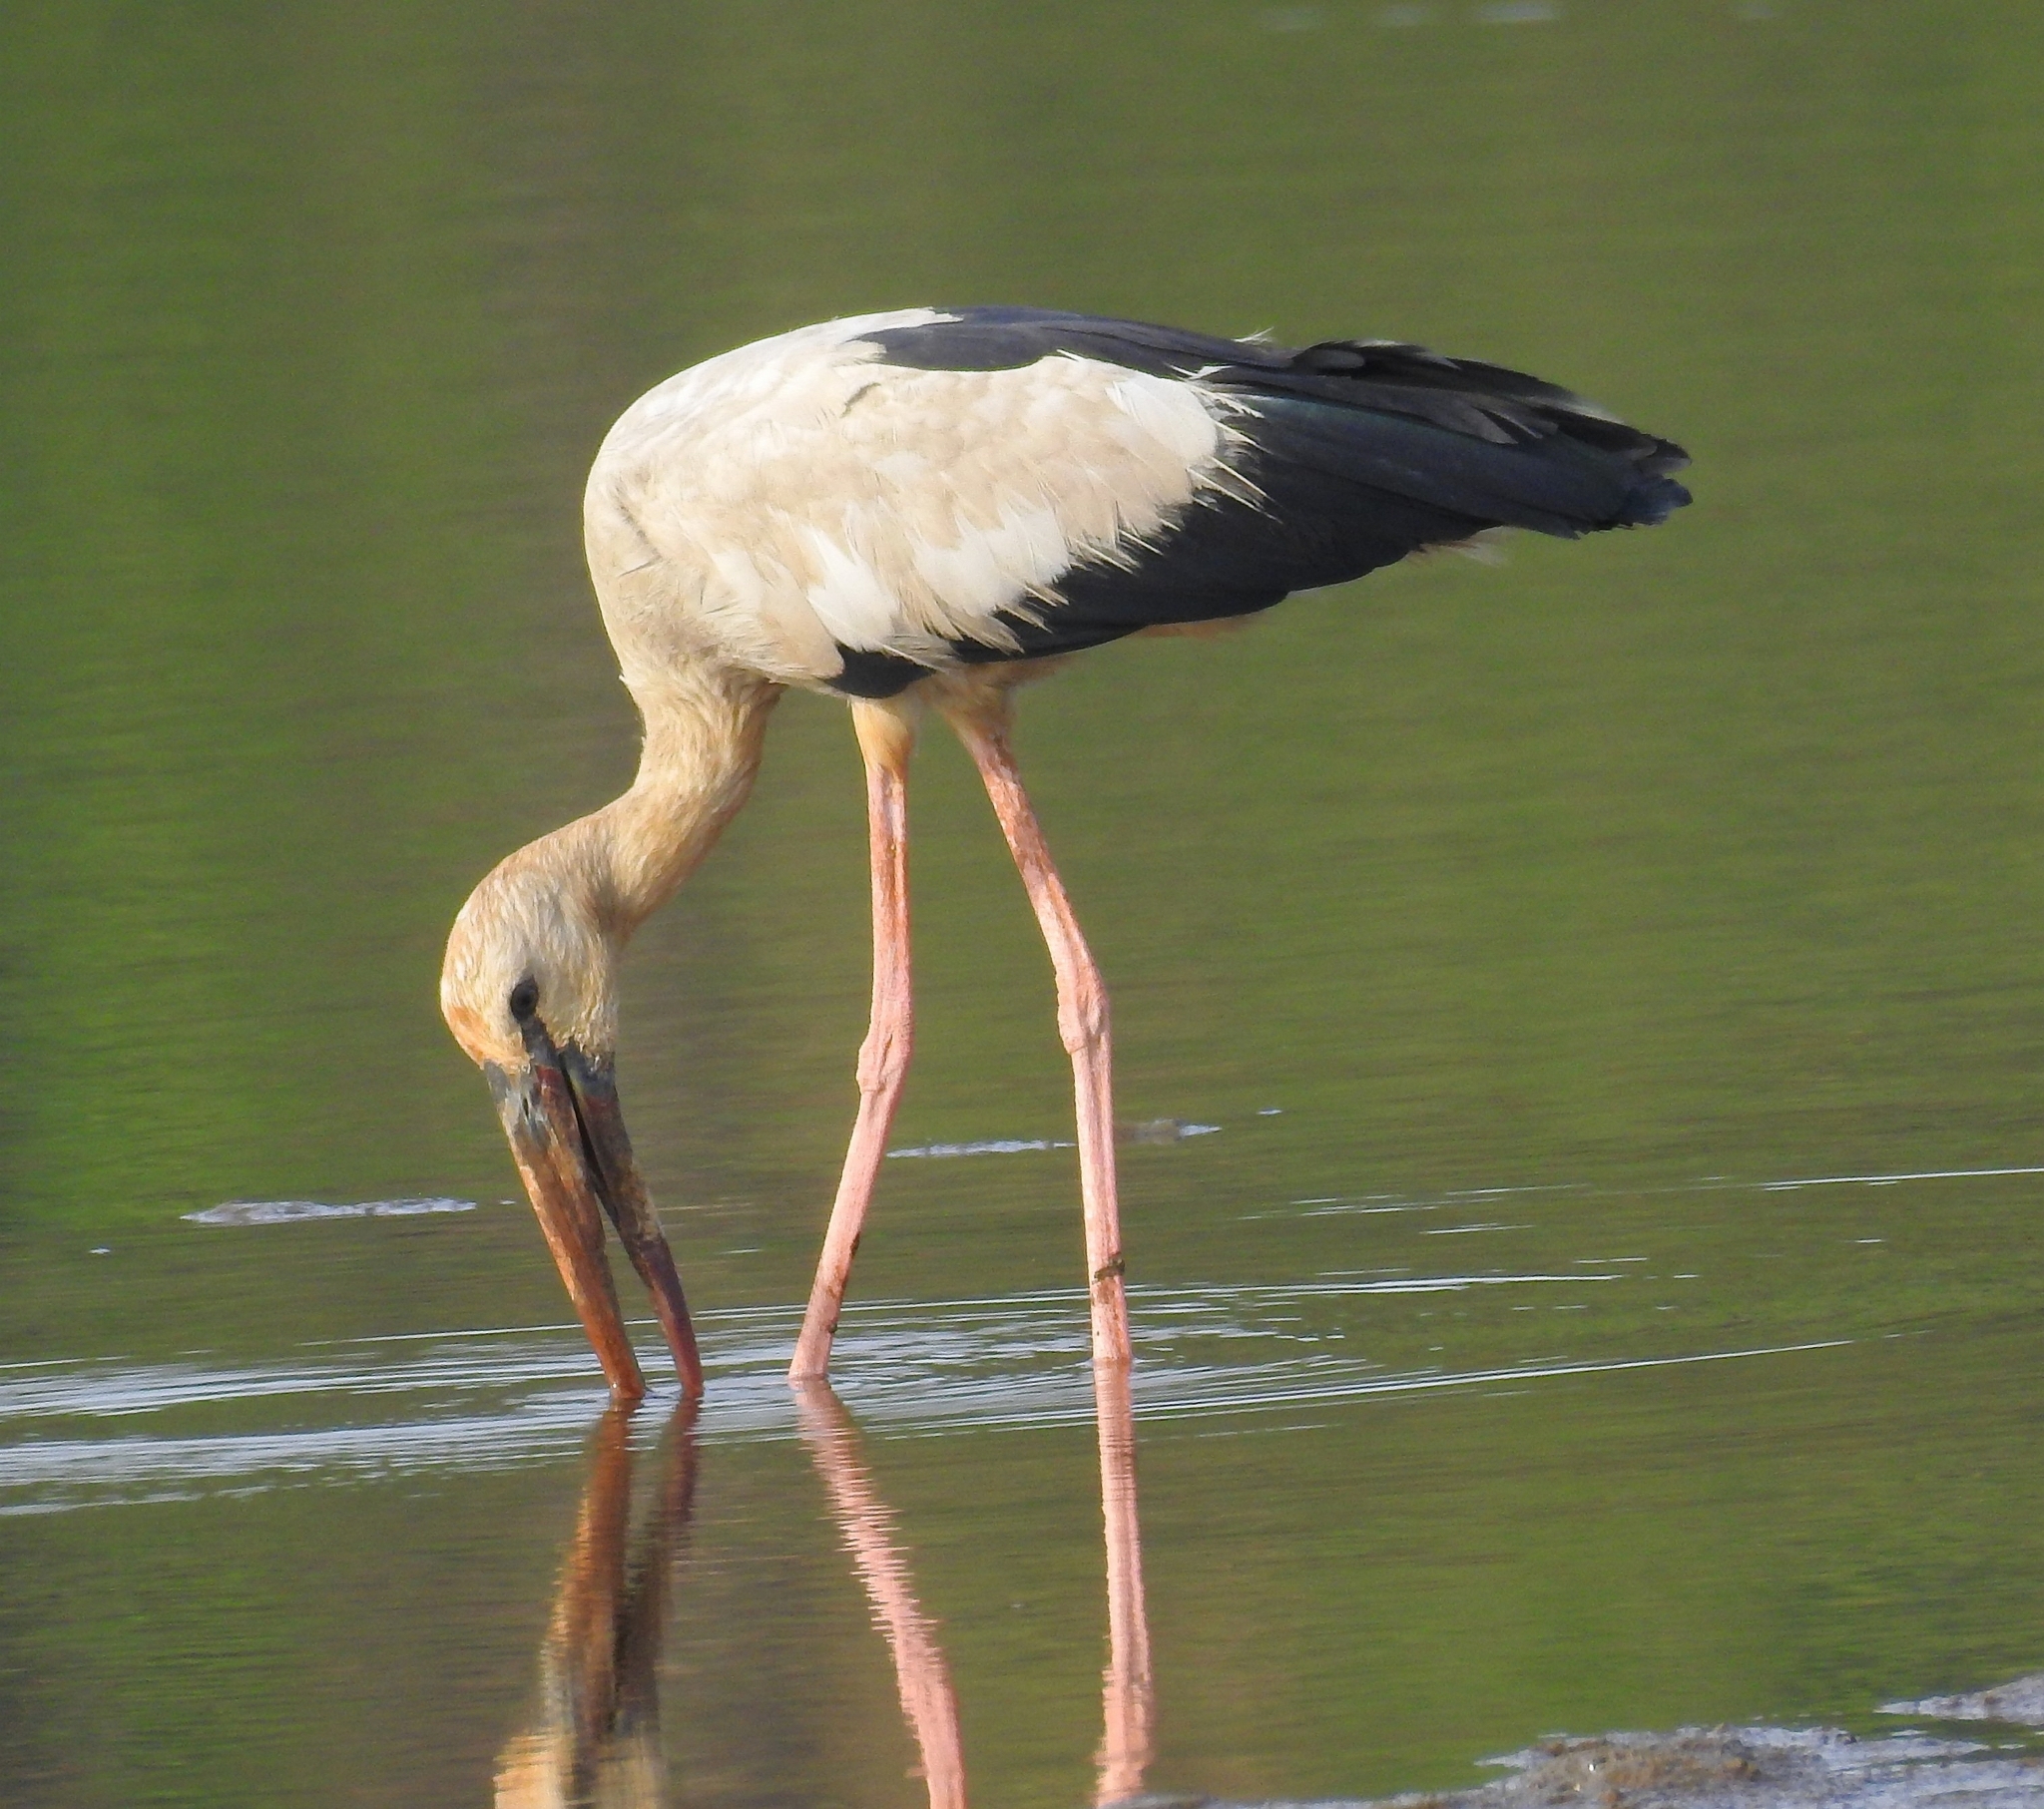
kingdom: Animalia
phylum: Chordata
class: Aves
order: Ciconiiformes
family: Ciconiidae
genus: Anastomus
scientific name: Anastomus oscitans
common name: Asian openbill
